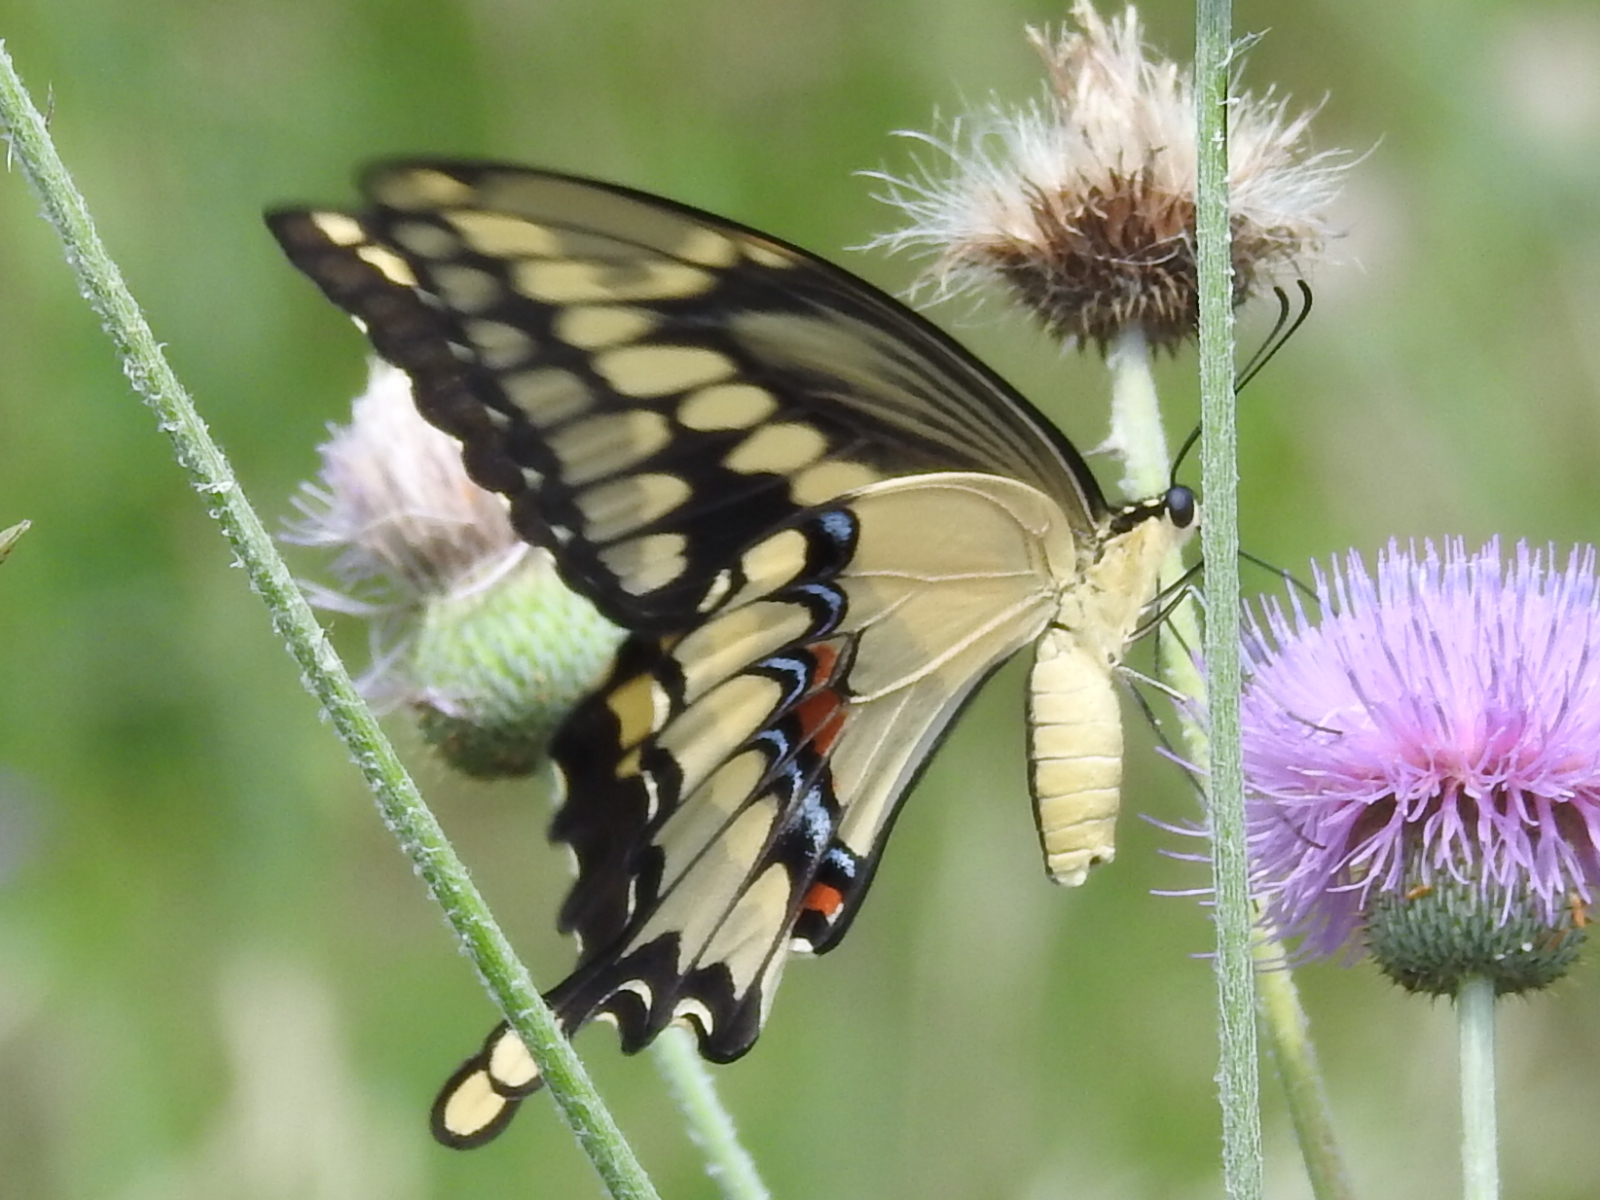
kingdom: Animalia
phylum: Arthropoda
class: Insecta
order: Lepidoptera
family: Papilionidae
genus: Papilio
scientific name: Papilio cresphontes
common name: Giant swallowtail
